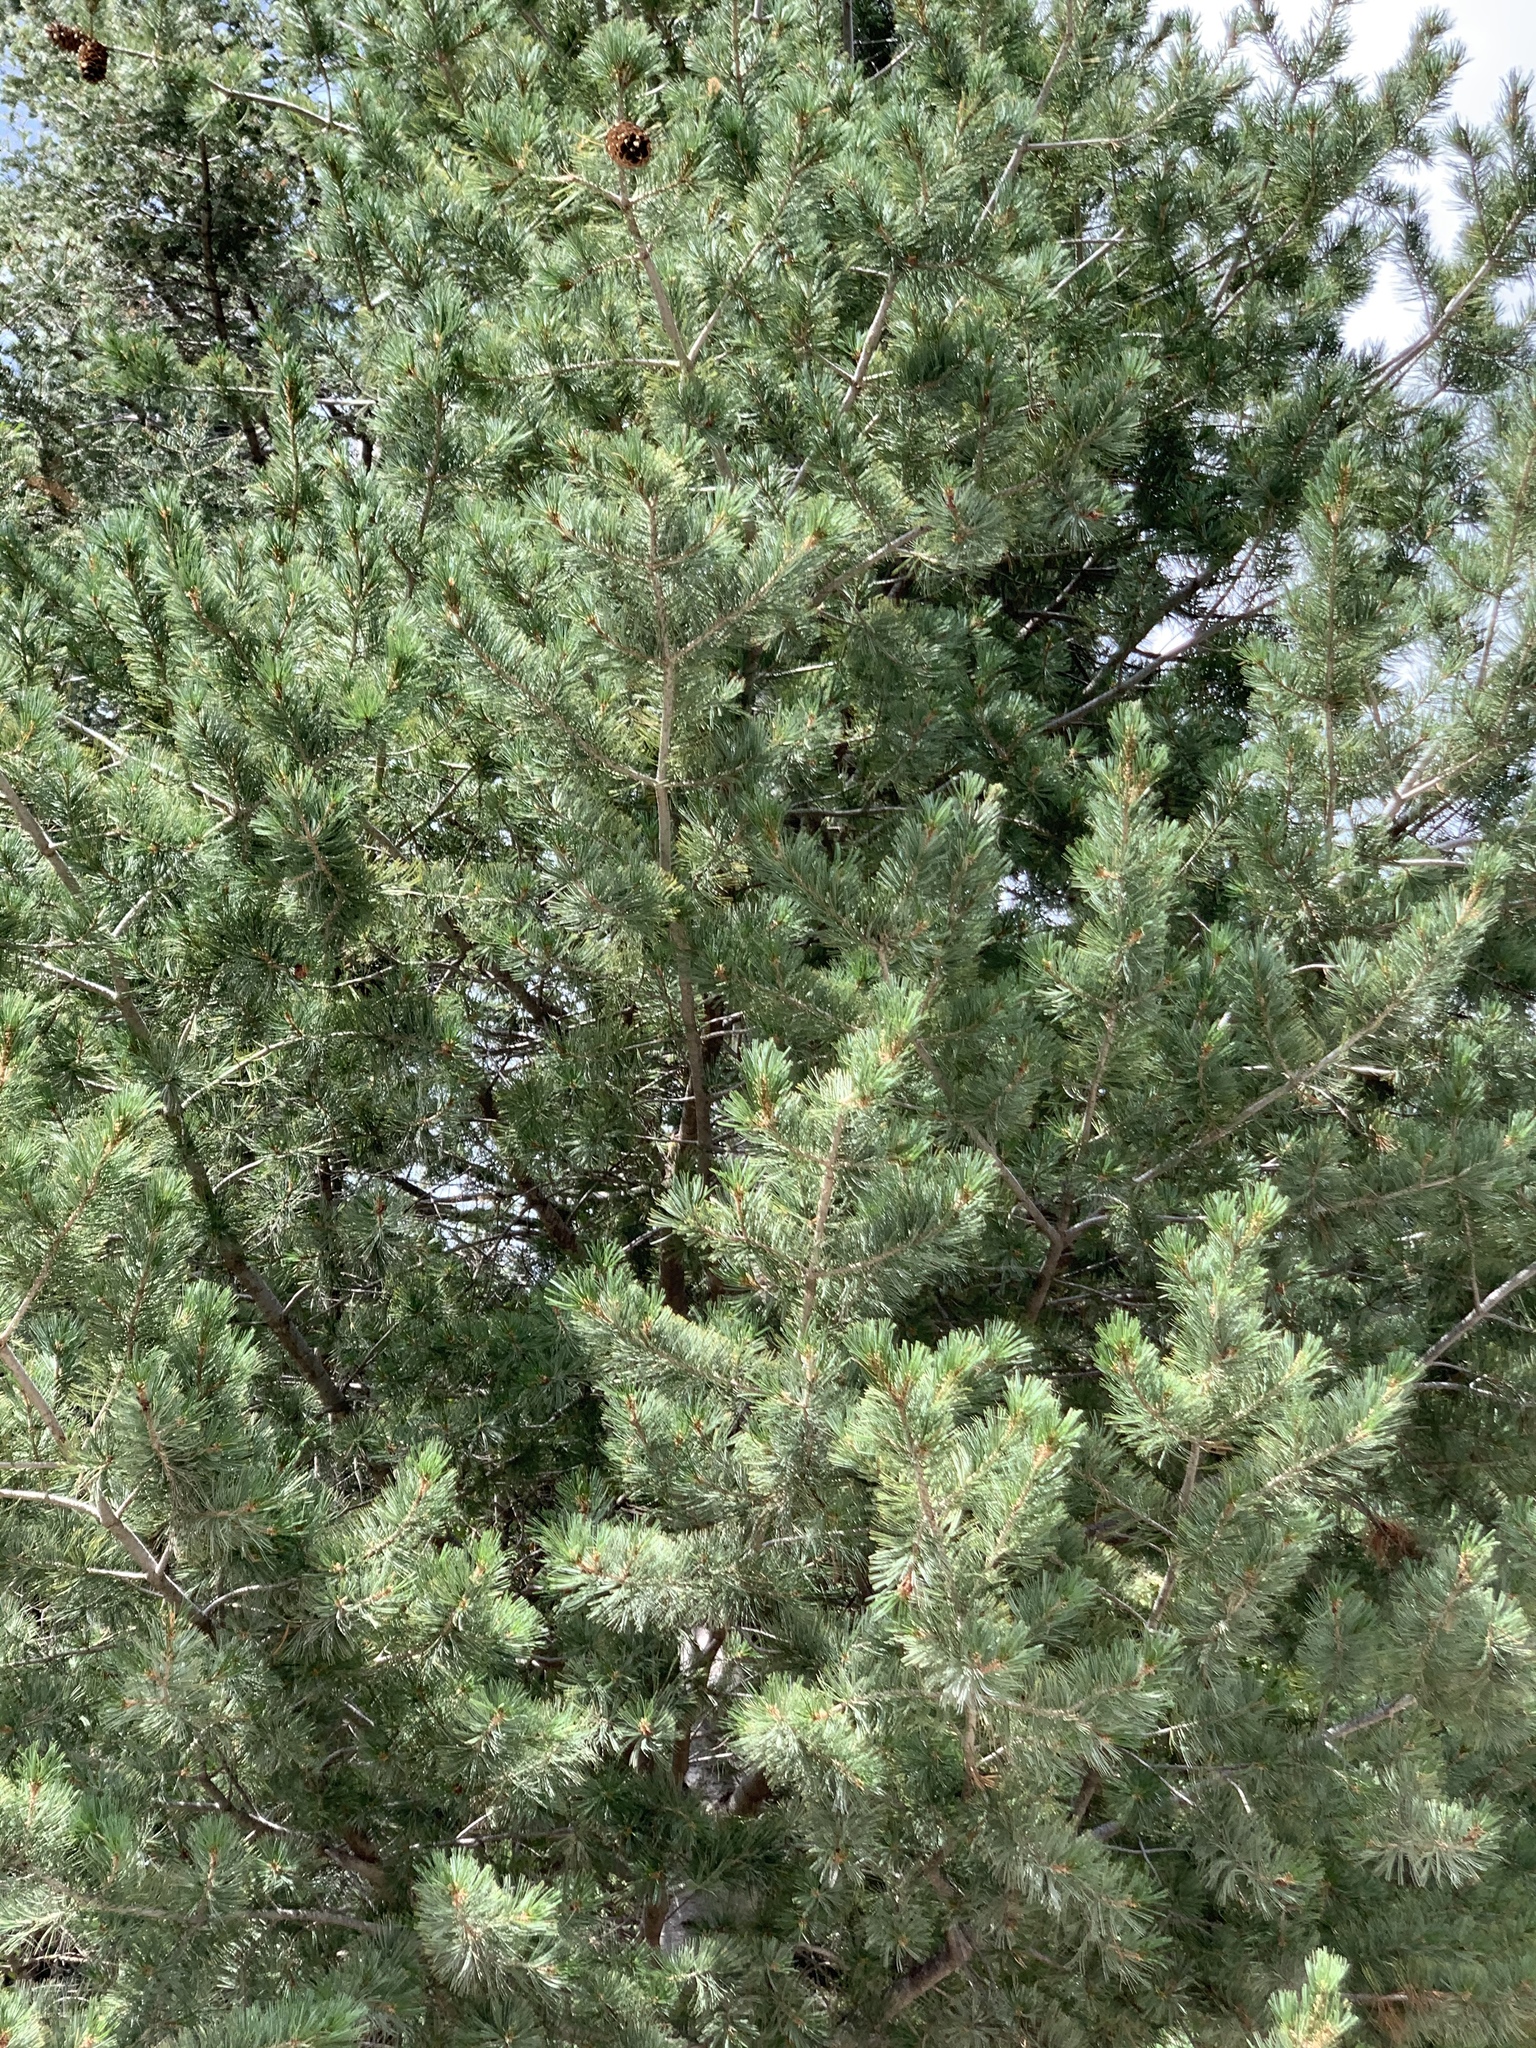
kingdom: Plantae
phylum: Tracheophyta
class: Pinopsida
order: Pinales
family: Pinaceae
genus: Pinus
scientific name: Pinus strobiformis
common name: Southwestern white pine
